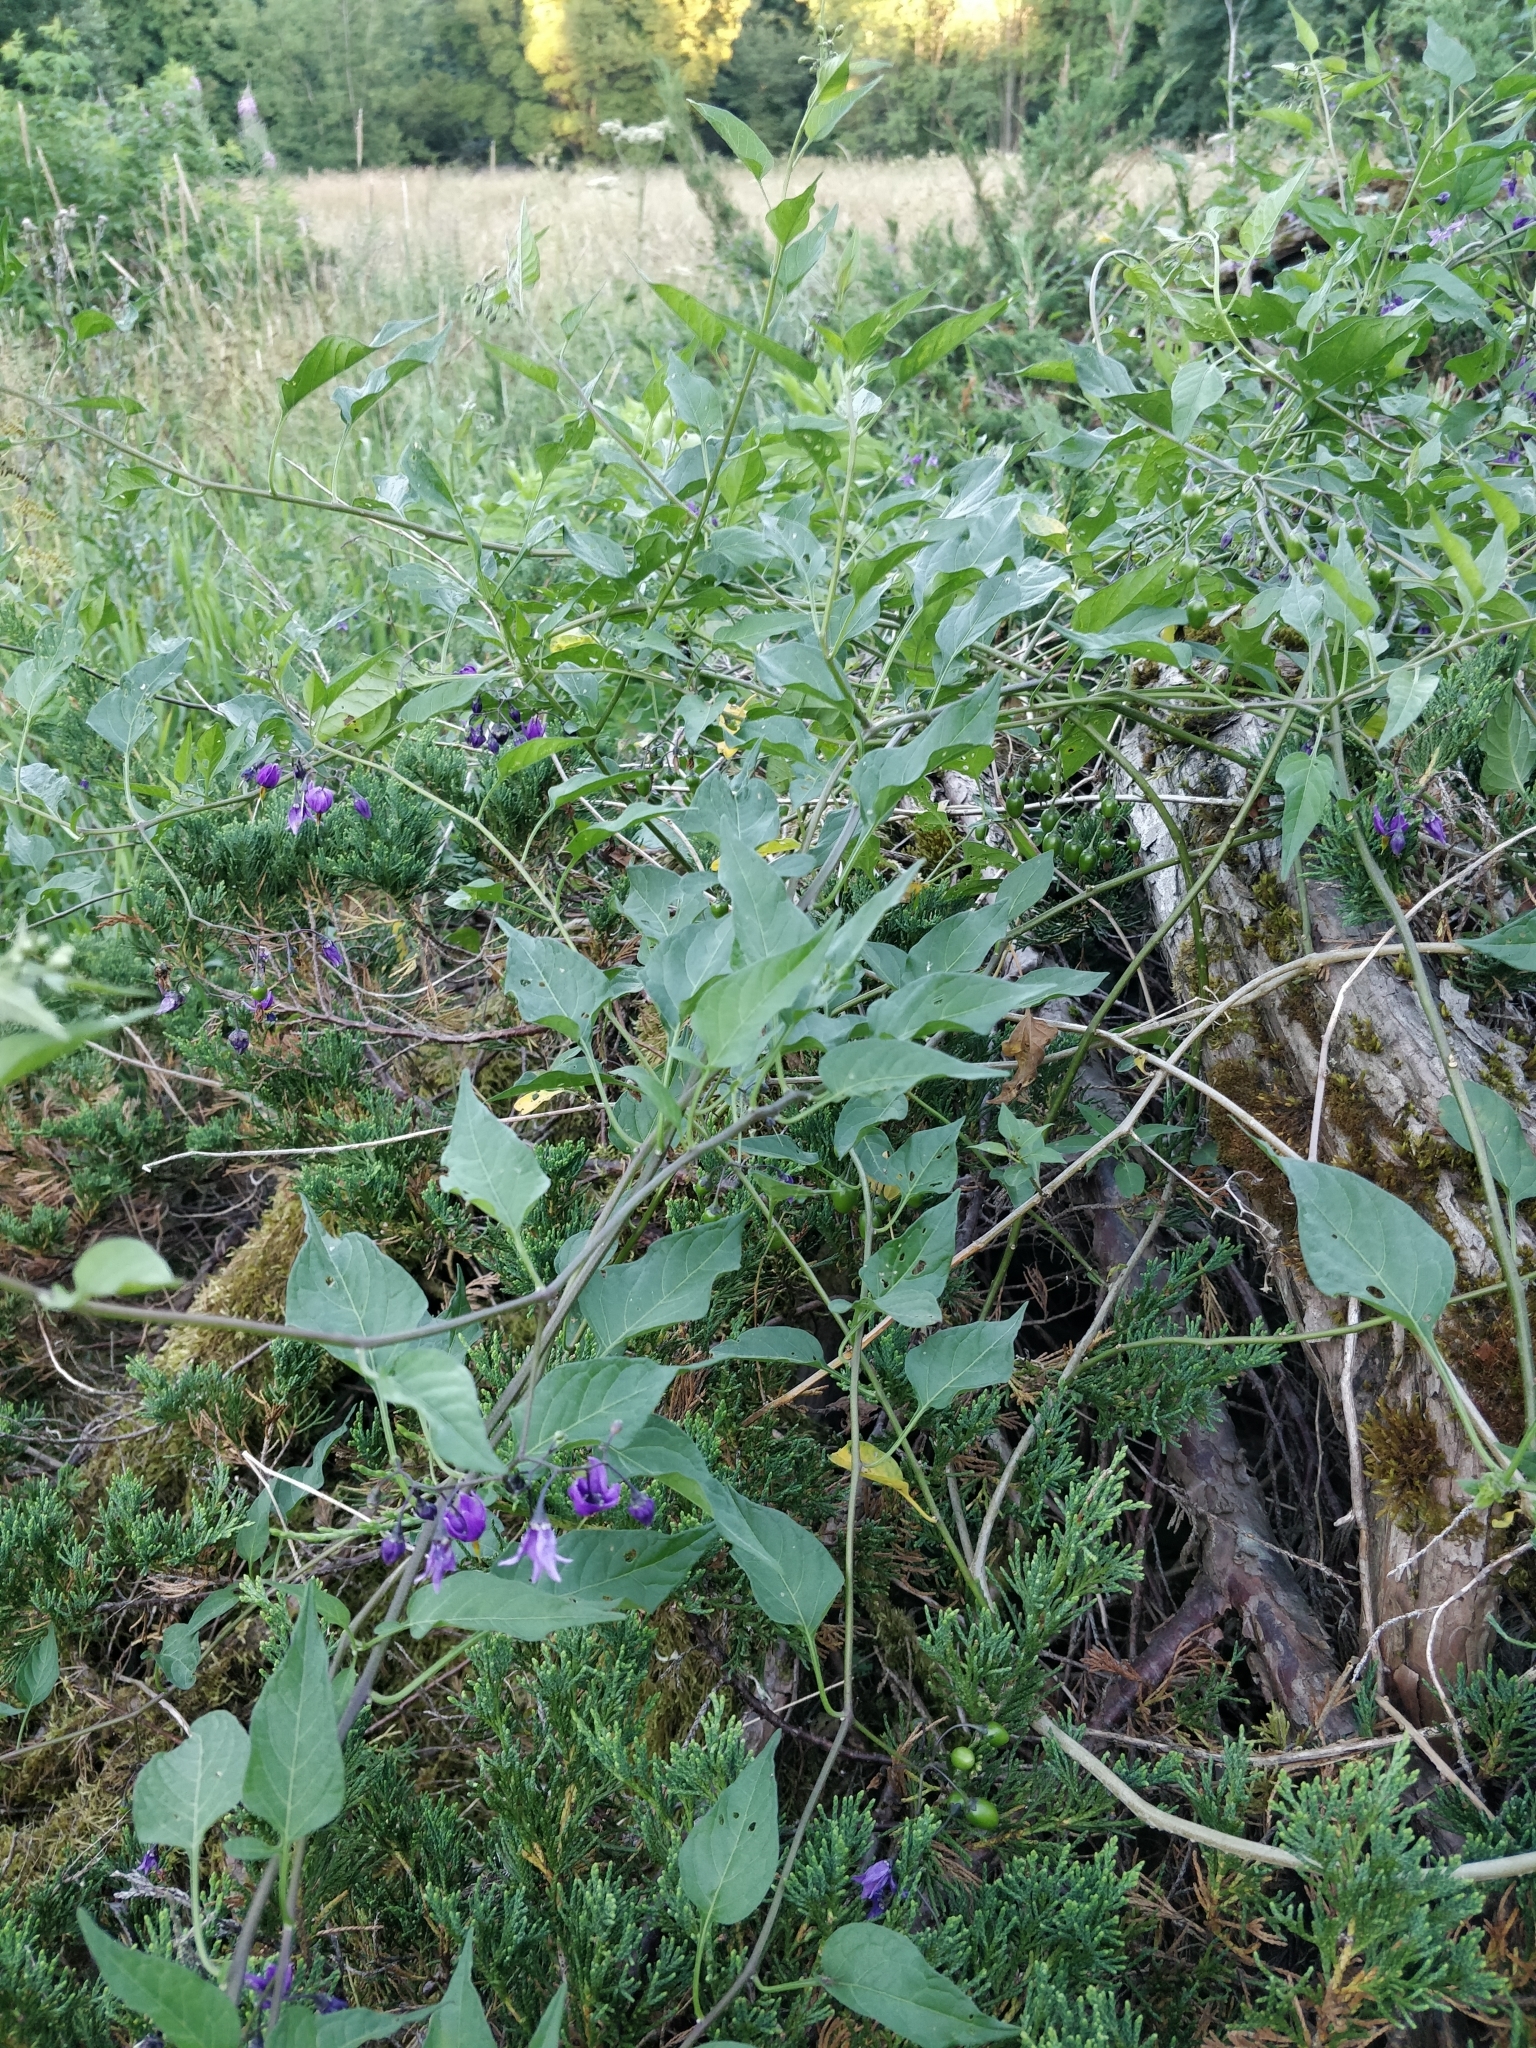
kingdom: Plantae
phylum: Tracheophyta
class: Magnoliopsida
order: Solanales
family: Solanaceae
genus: Solanum
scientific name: Solanum dulcamara
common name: Climbing nightshade
